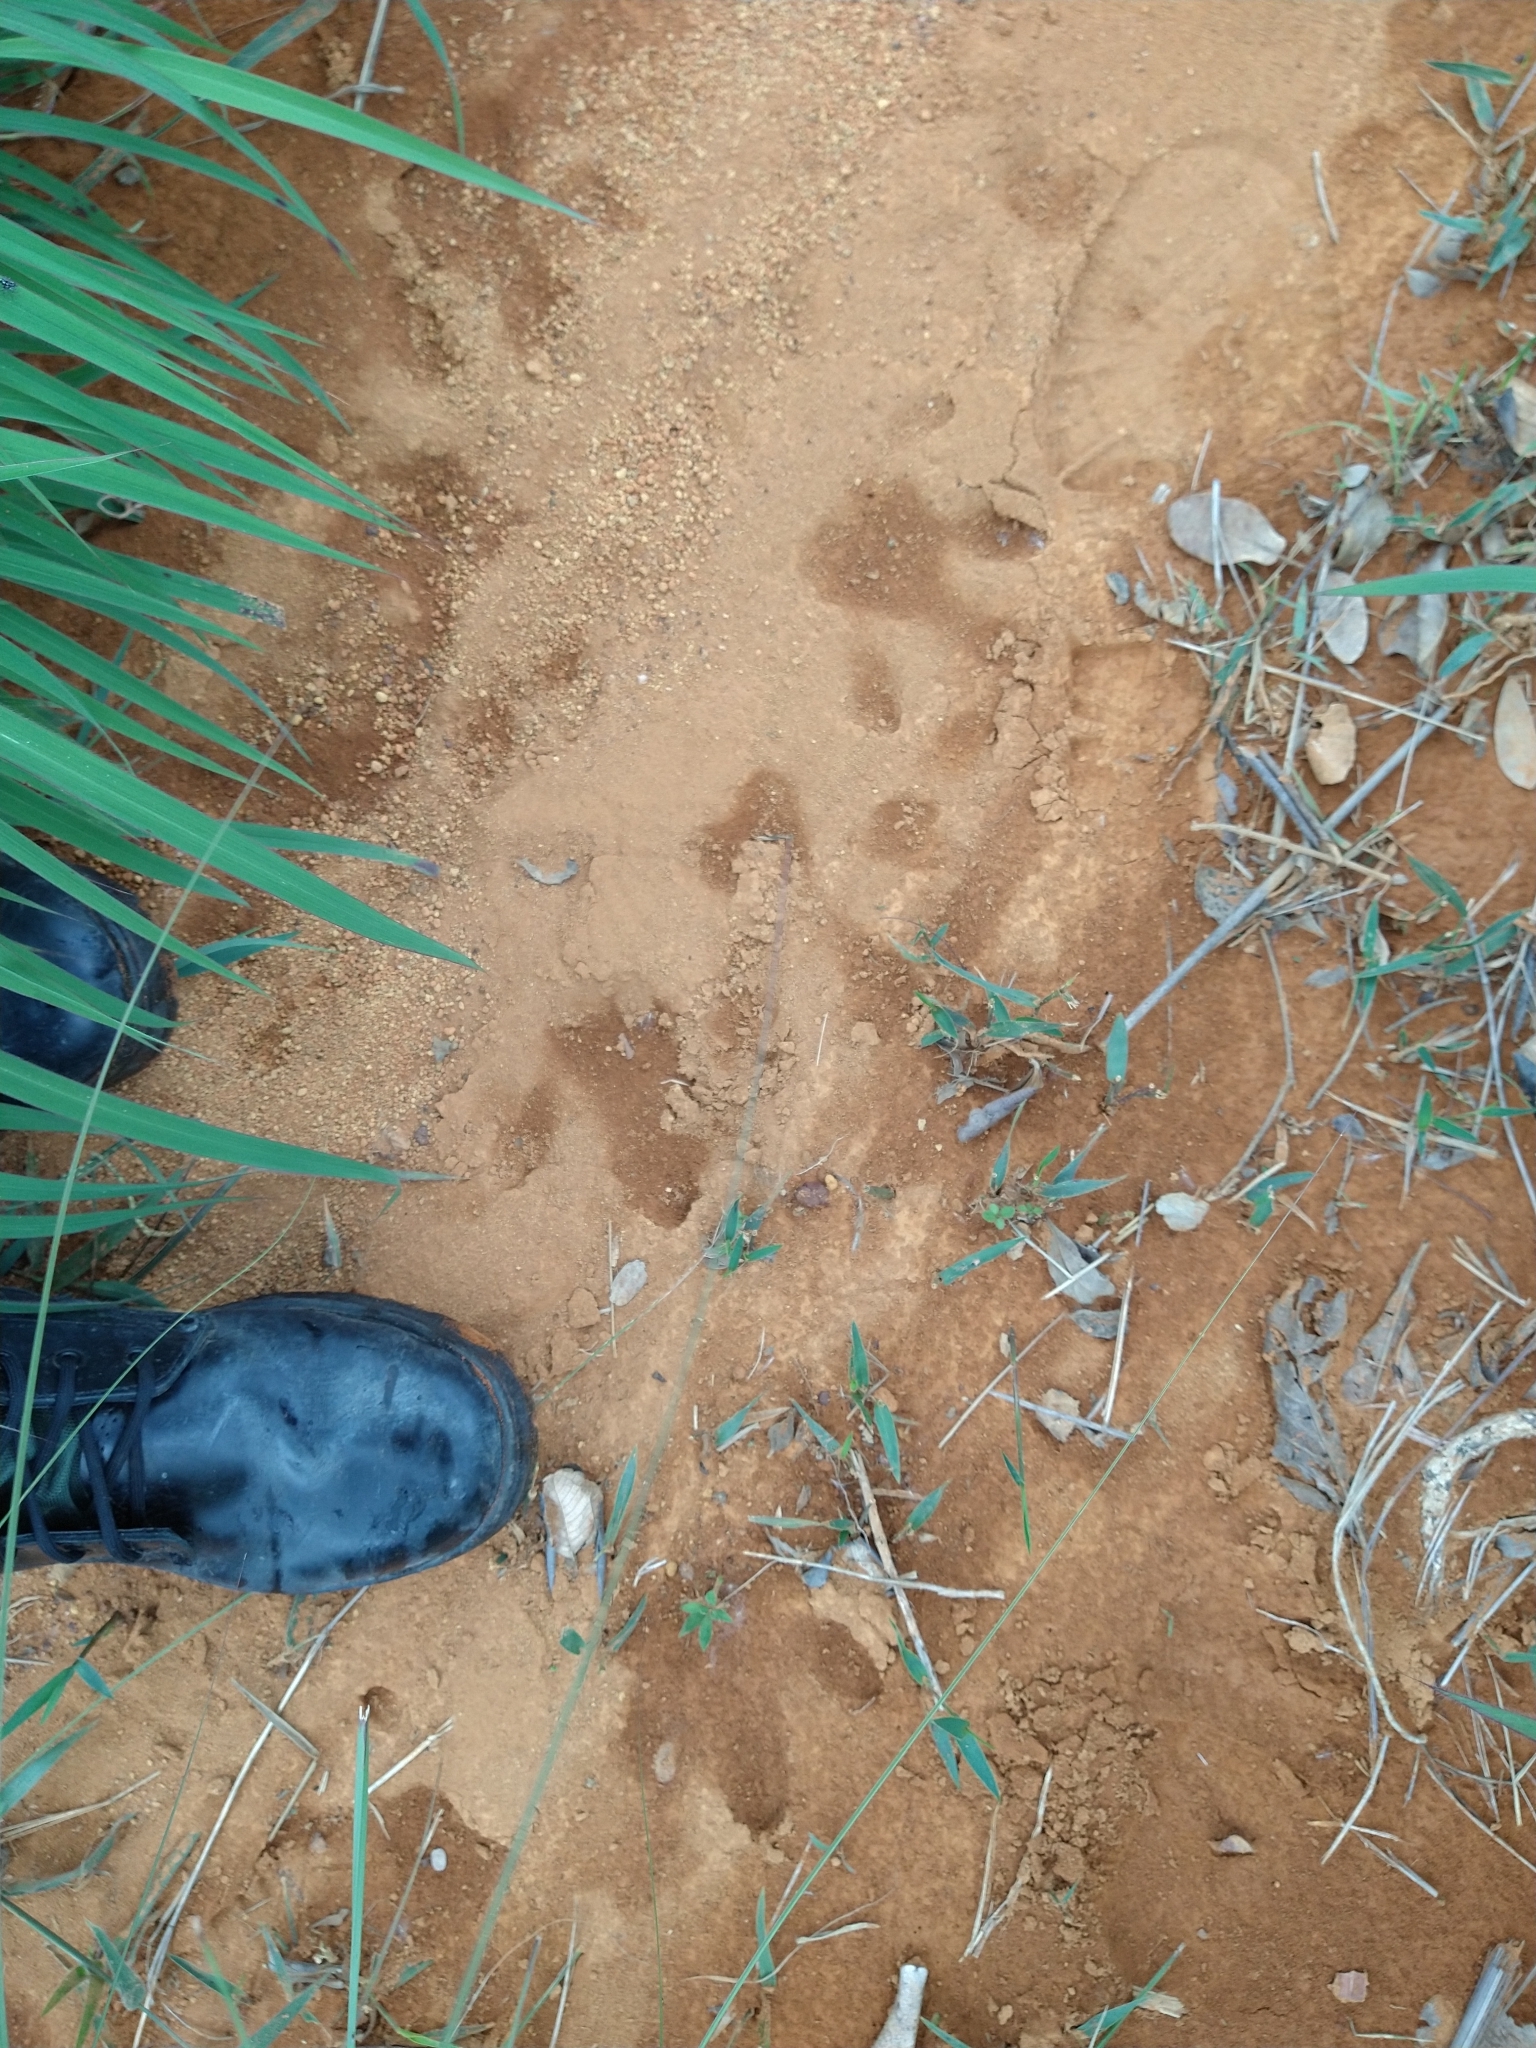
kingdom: Animalia
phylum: Chordata
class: Mammalia
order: Rodentia
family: Caviidae
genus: Hydrochoerus
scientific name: Hydrochoerus hydrochaeris
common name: Capybara
